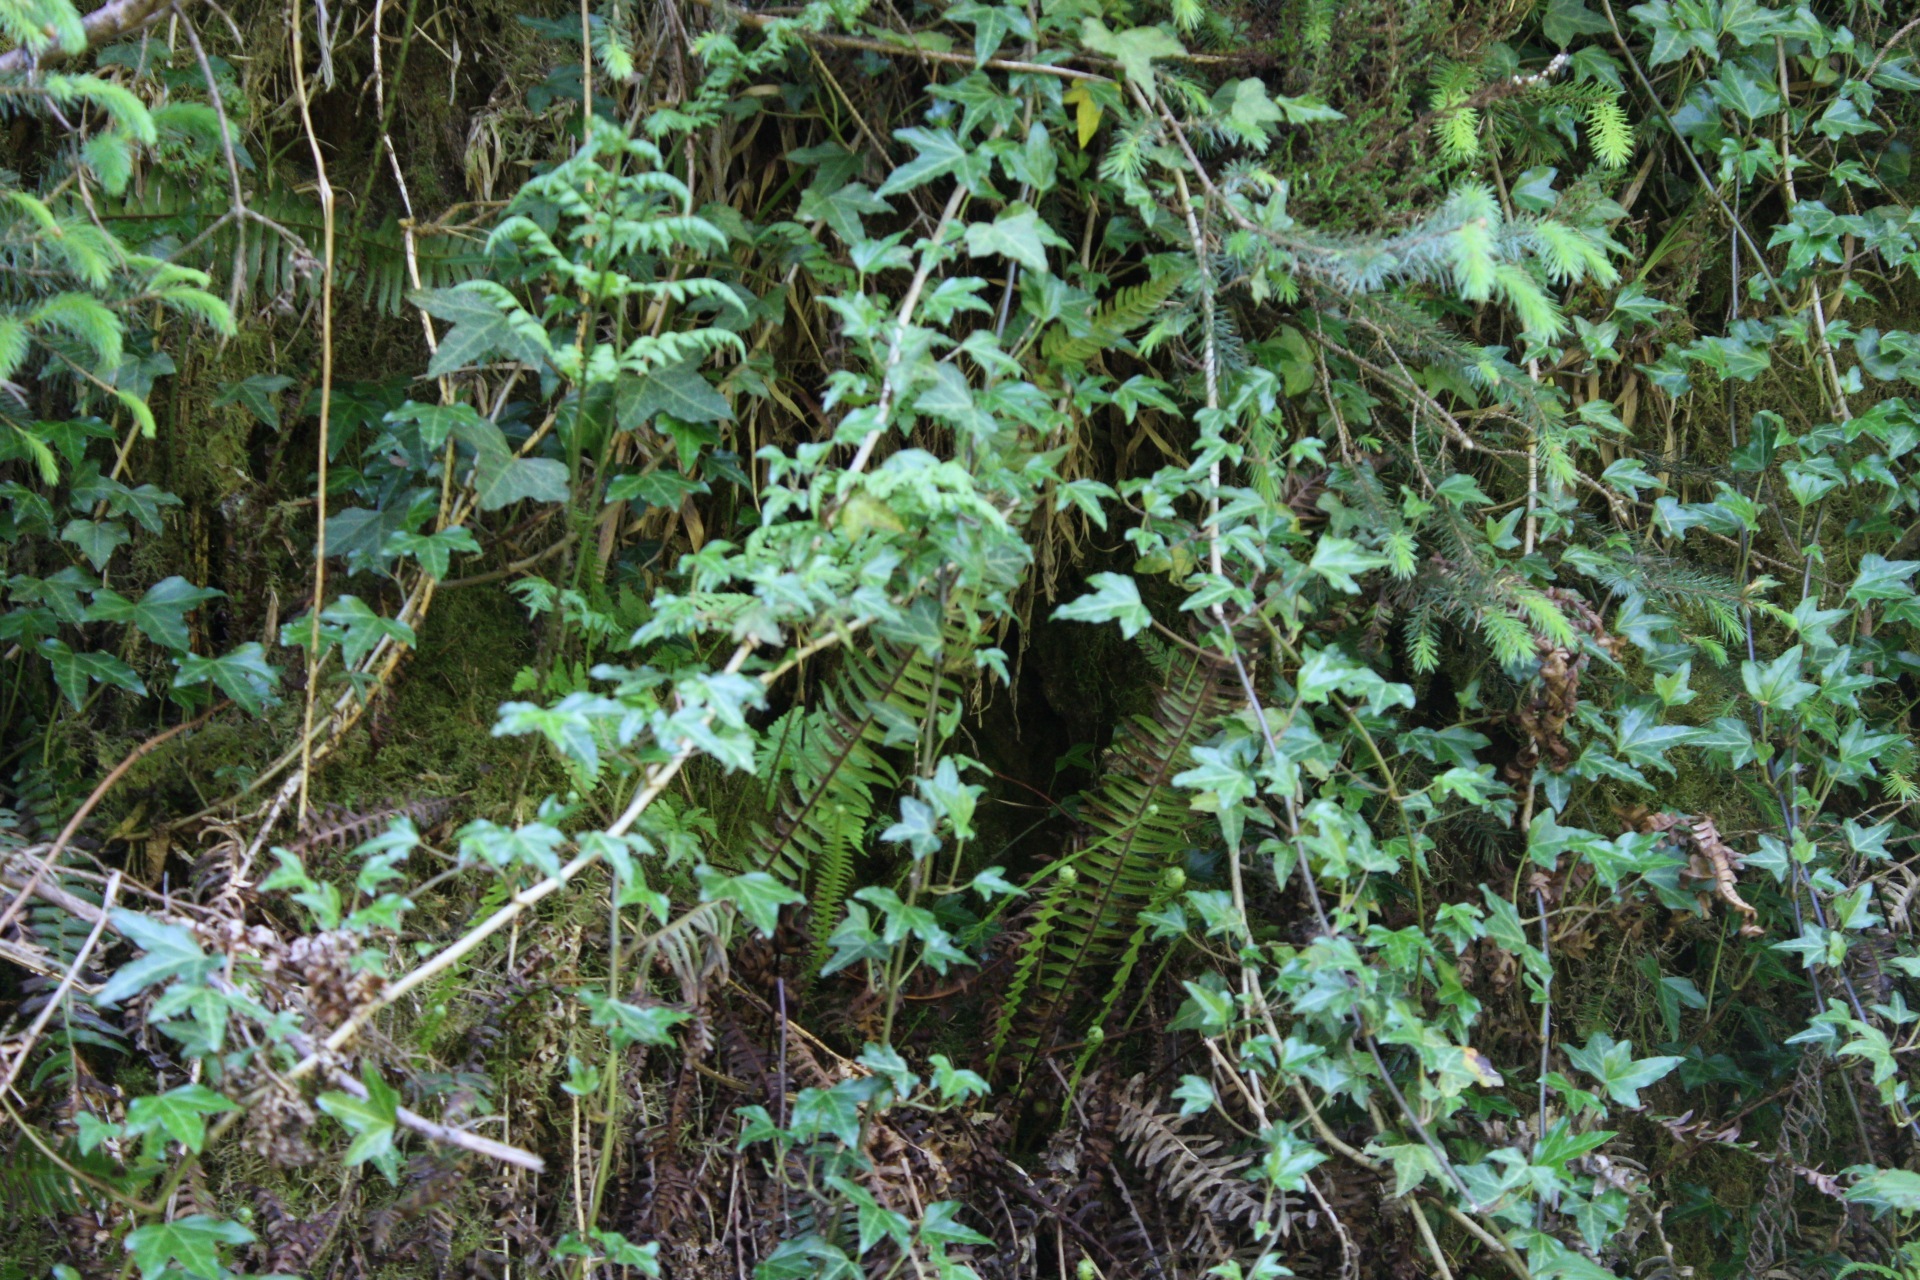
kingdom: Plantae
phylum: Tracheophyta
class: Magnoliopsida
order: Apiales
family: Araliaceae
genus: Hedera
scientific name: Hedera helix
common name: Ivy
